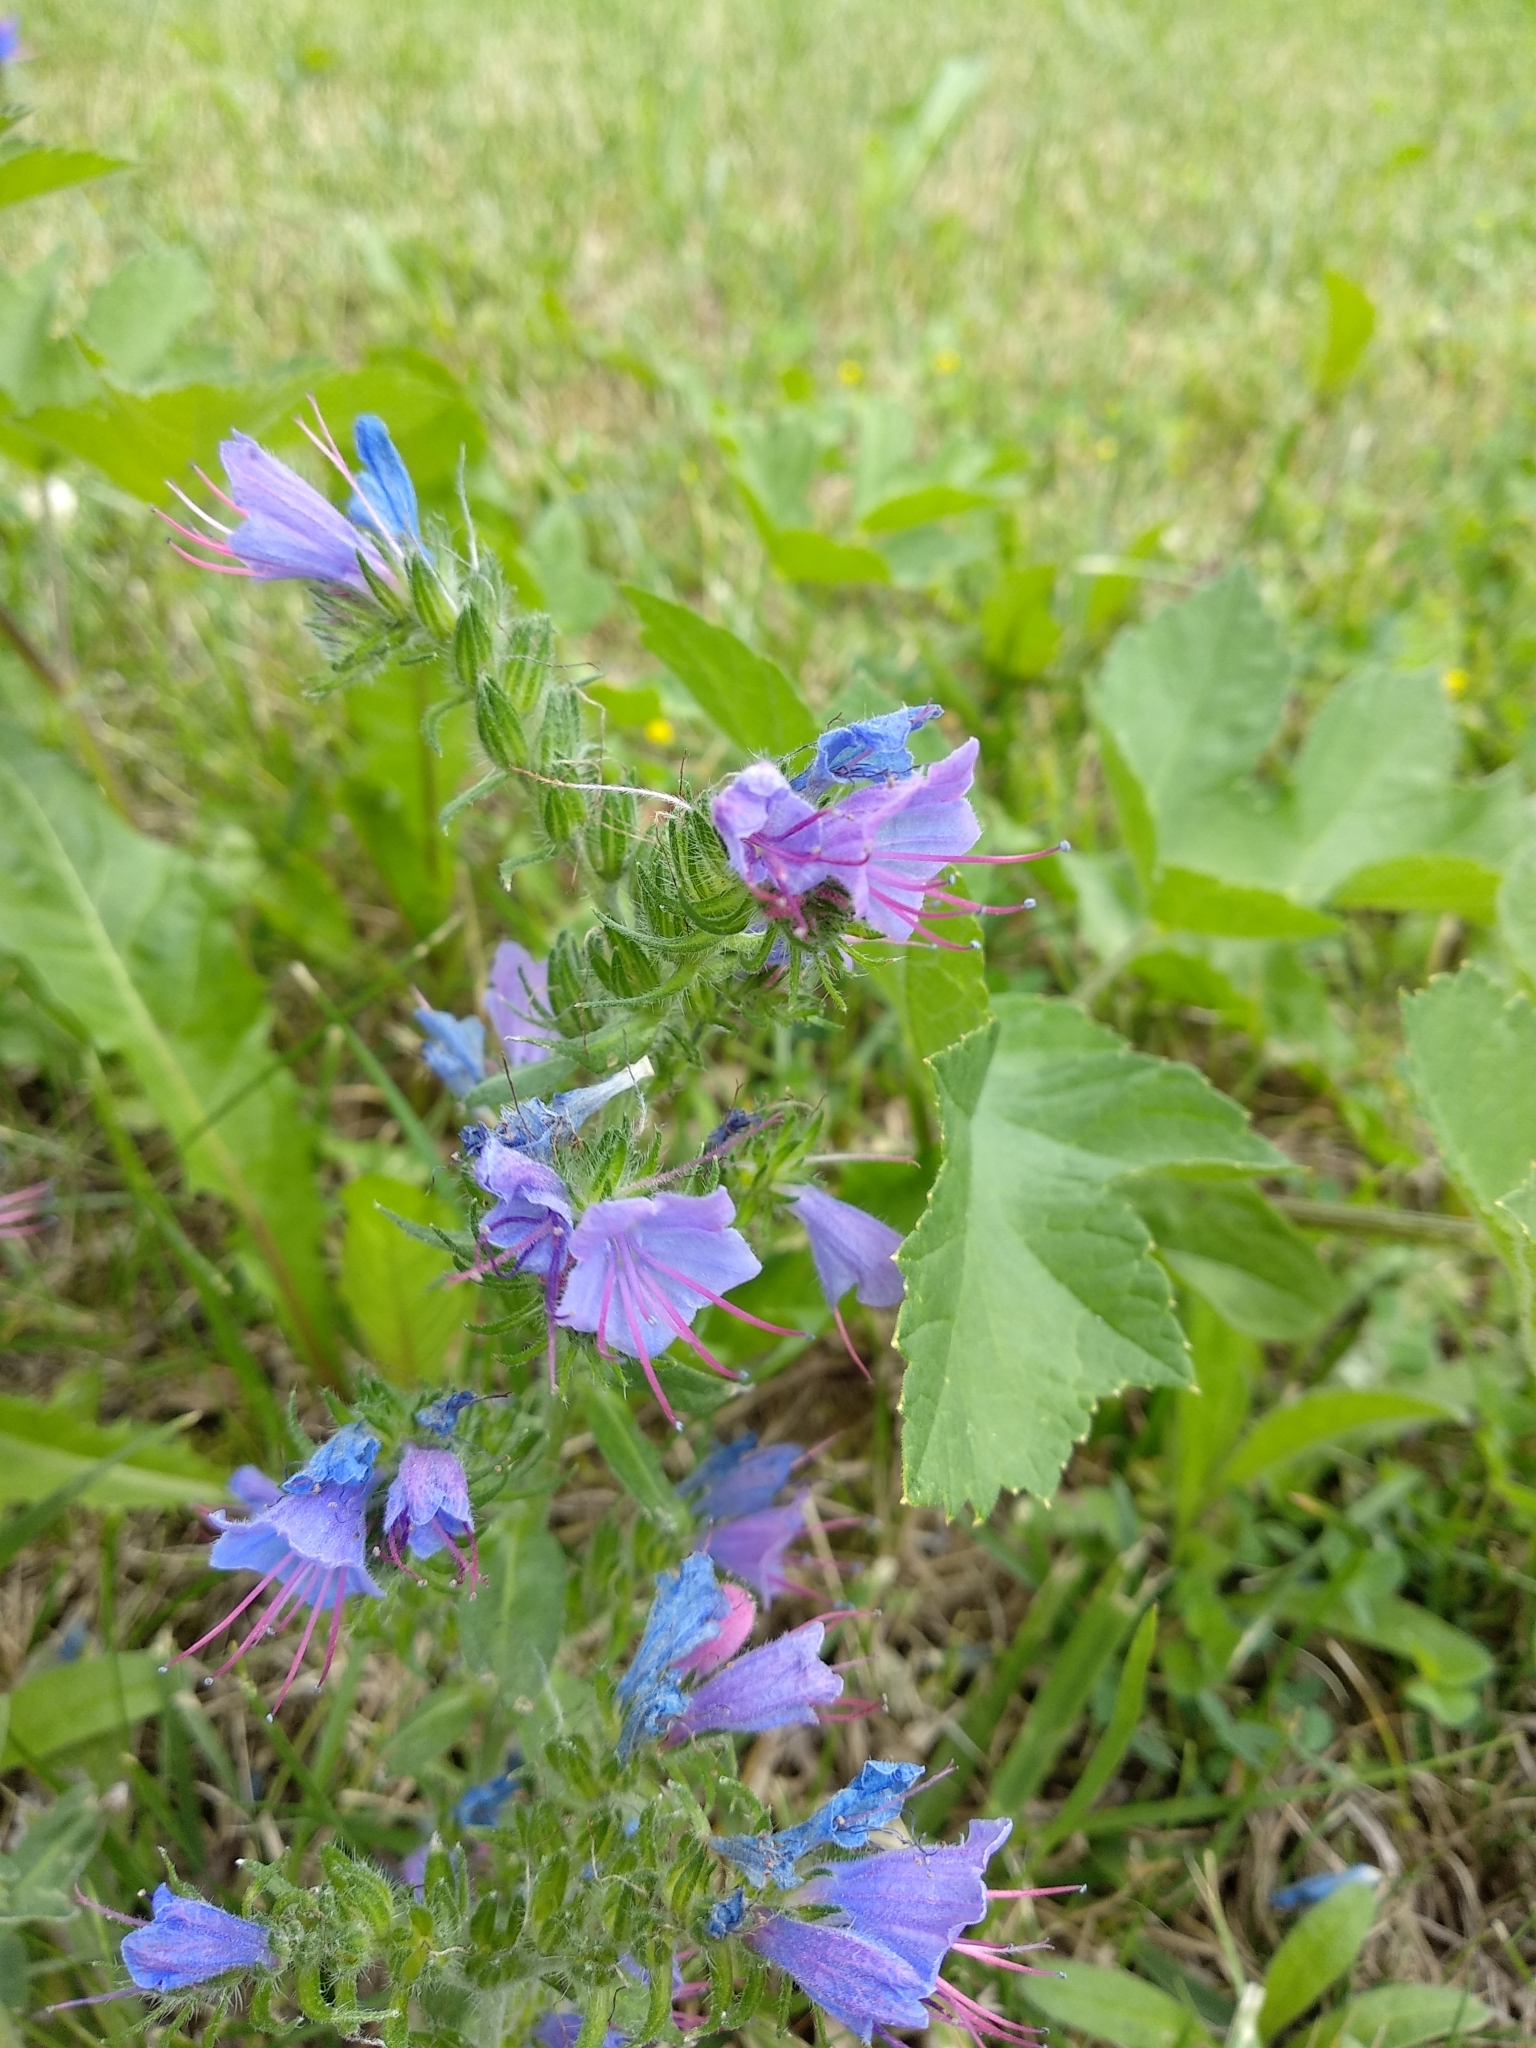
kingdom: Plantae
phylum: Tracheophyta
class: Magnoliopsida
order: Boraginales
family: Boraginaceae
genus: Echium
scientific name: Echium vulgare
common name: Common viper's bugloss
